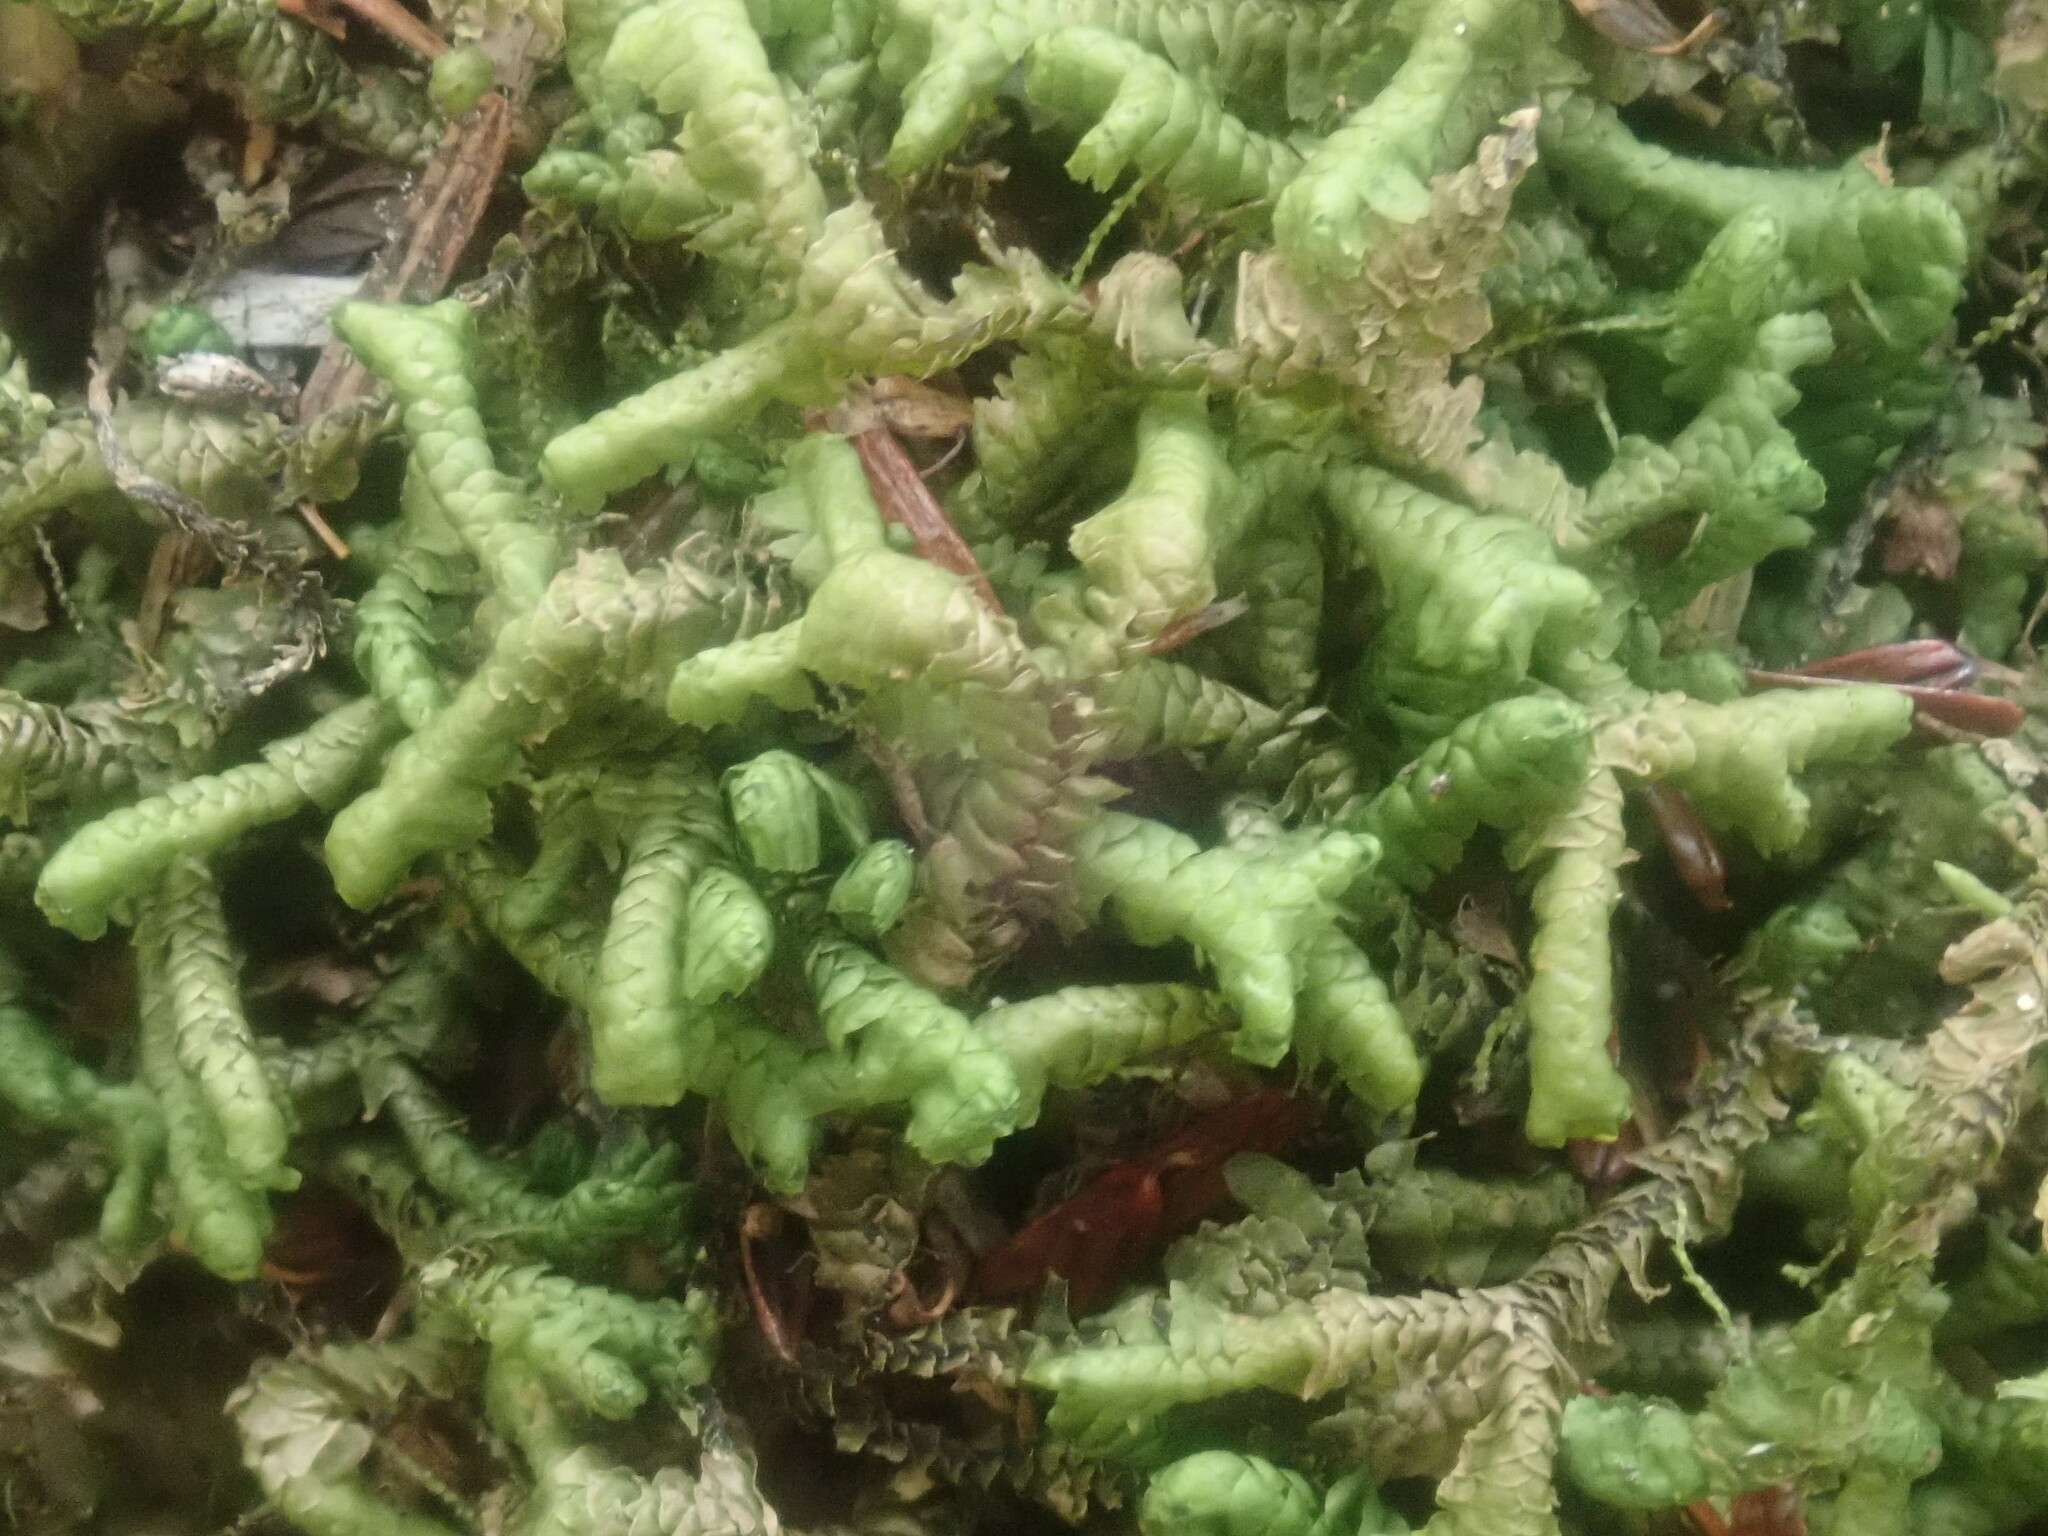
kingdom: Plantae
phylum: Marchantiophyta
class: Jungermanniopsida
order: Jungermanniales
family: Lepidoziaceae
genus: Bazzania
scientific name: Bazzania trilobata
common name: Three-lobed whipwort
